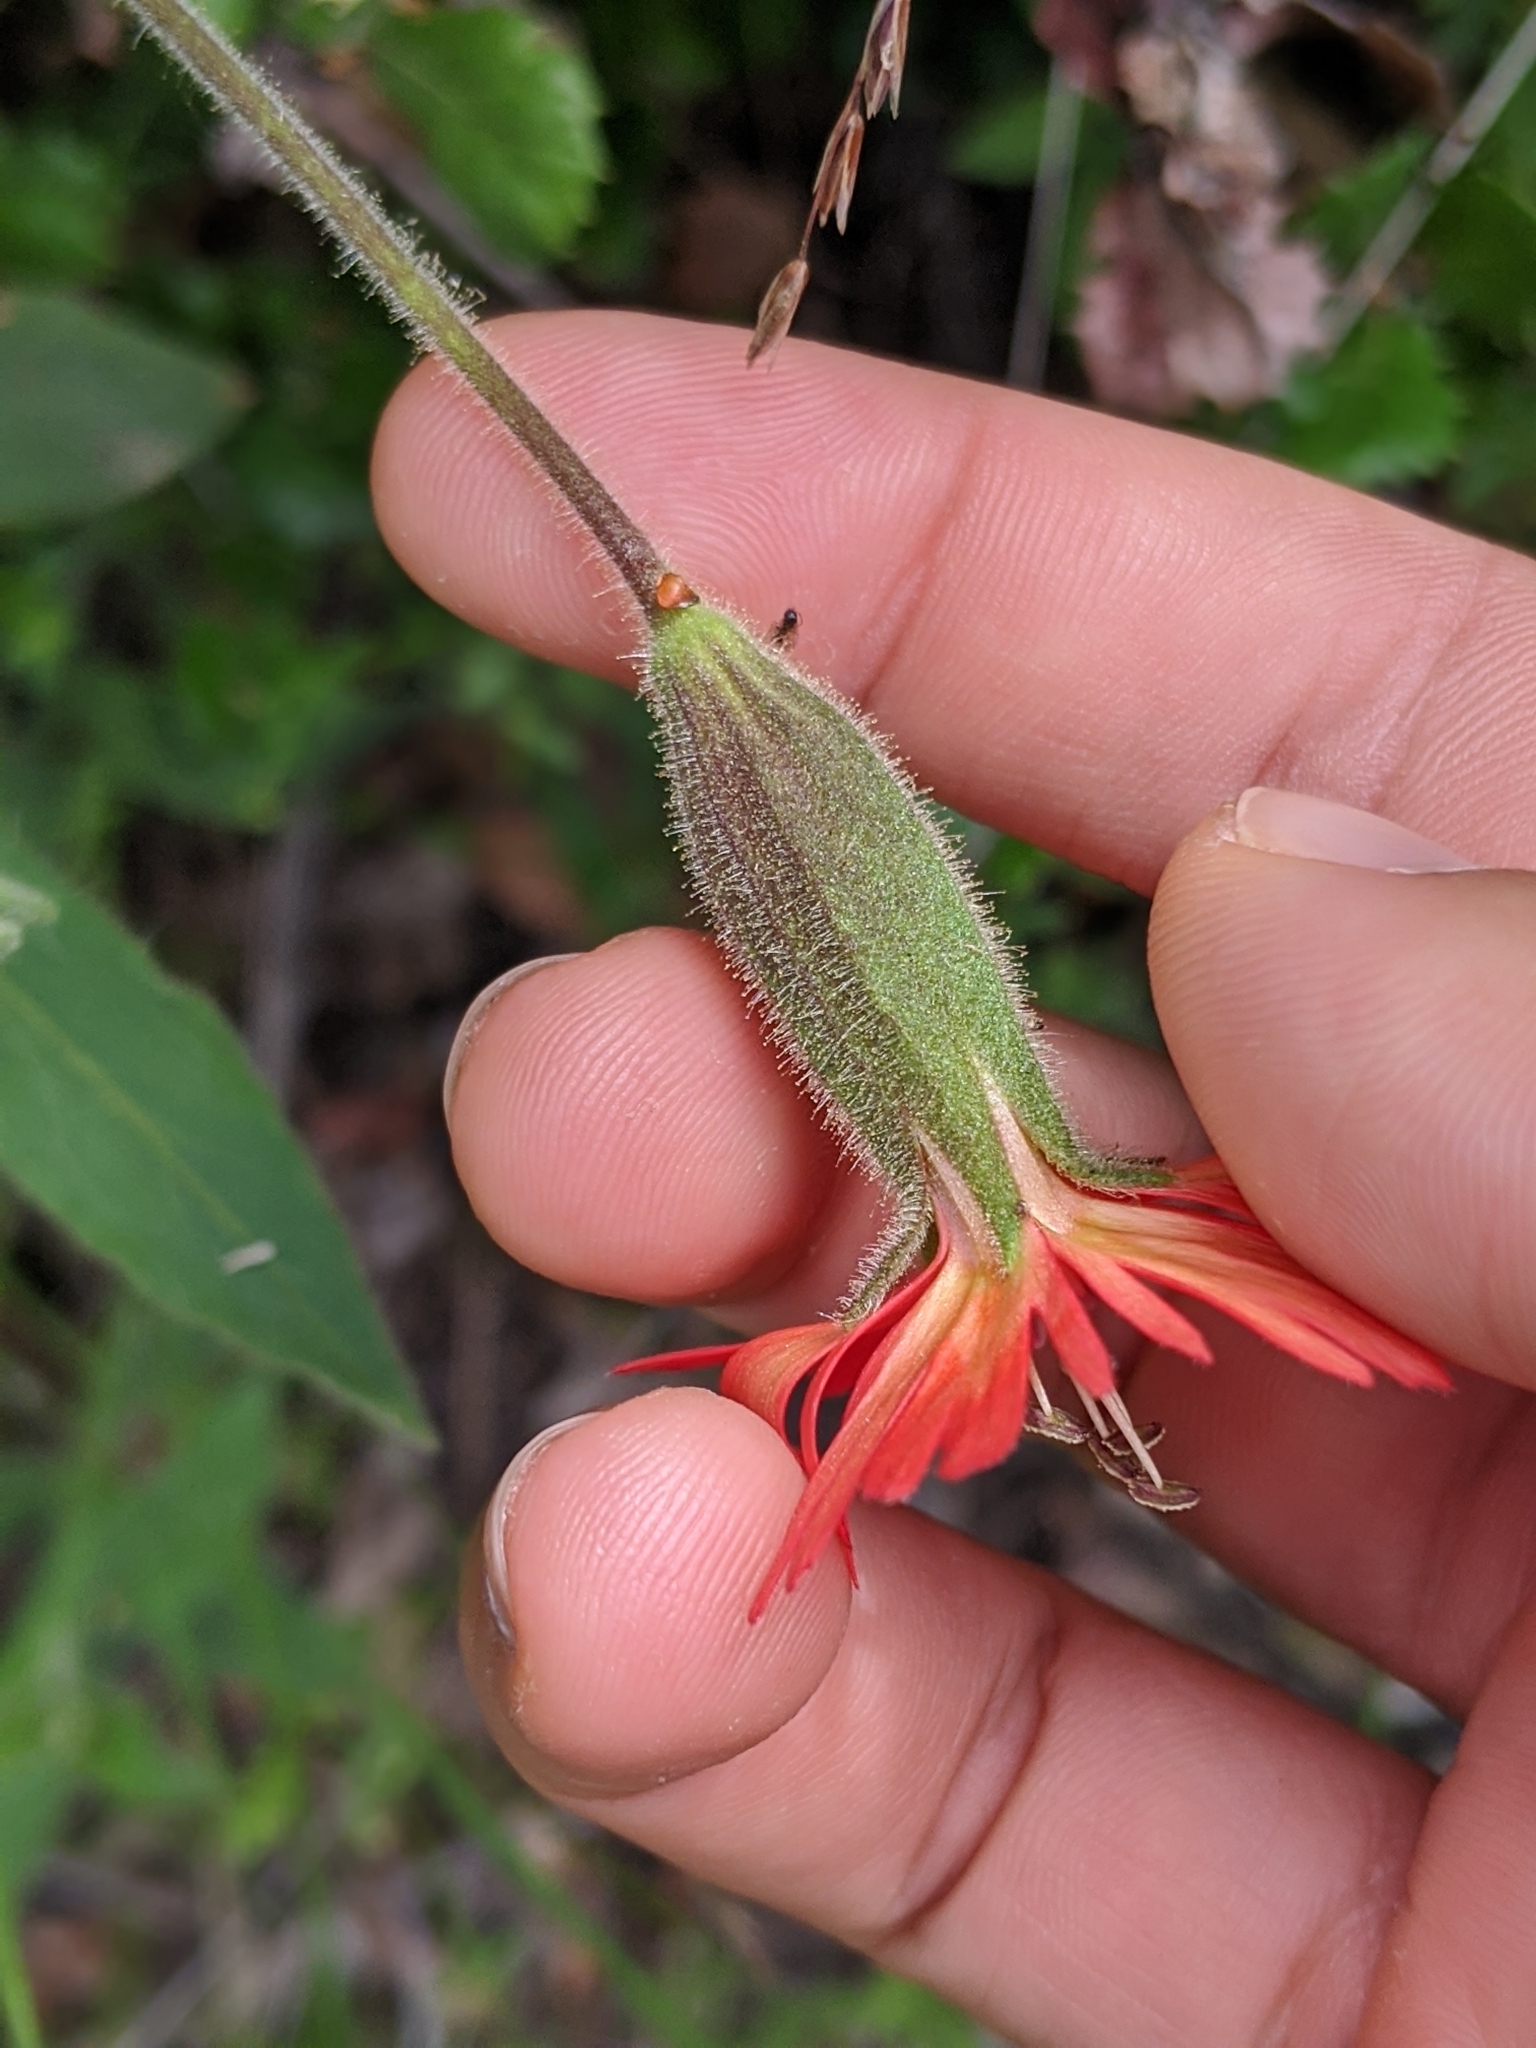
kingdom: Plantae
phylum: Tracheophyta
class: Magnoliopsida
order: Caryophyllales
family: Caryophyllaceae
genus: Silene
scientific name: Silene laciniata
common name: Indian-pink
